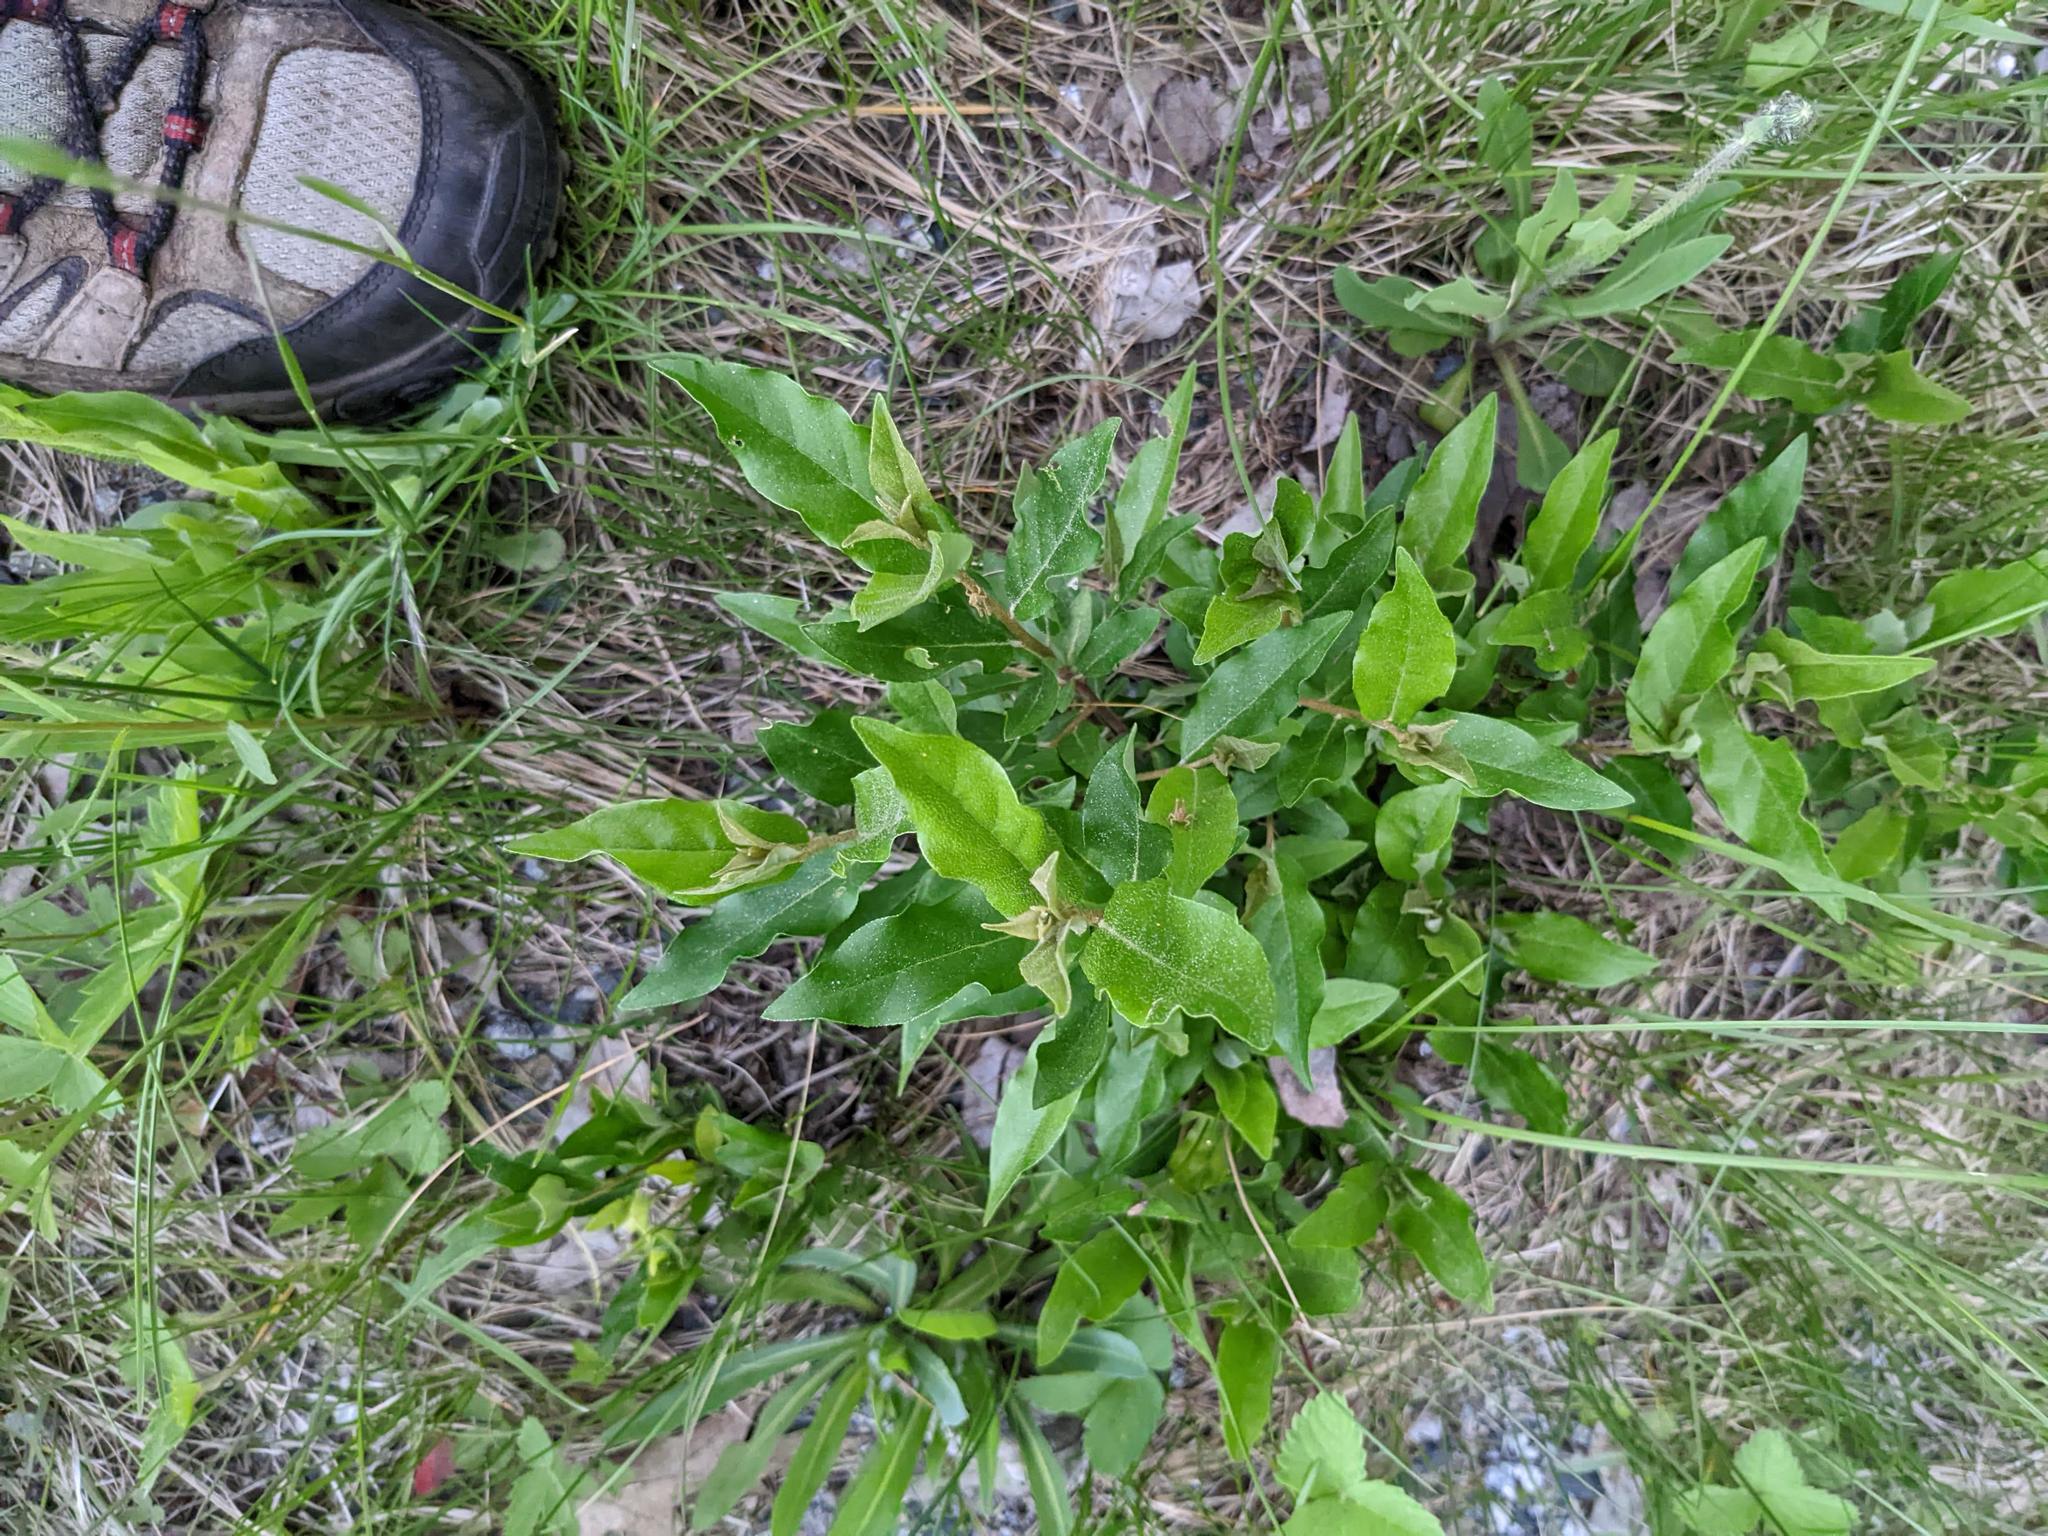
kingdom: Plantae
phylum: Tracheophyta
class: Magnoliopsida
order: Rosales
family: Elaeagnaceae
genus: Elaeagnus
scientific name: Elaeagnus umbellata
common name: Autumn olive
